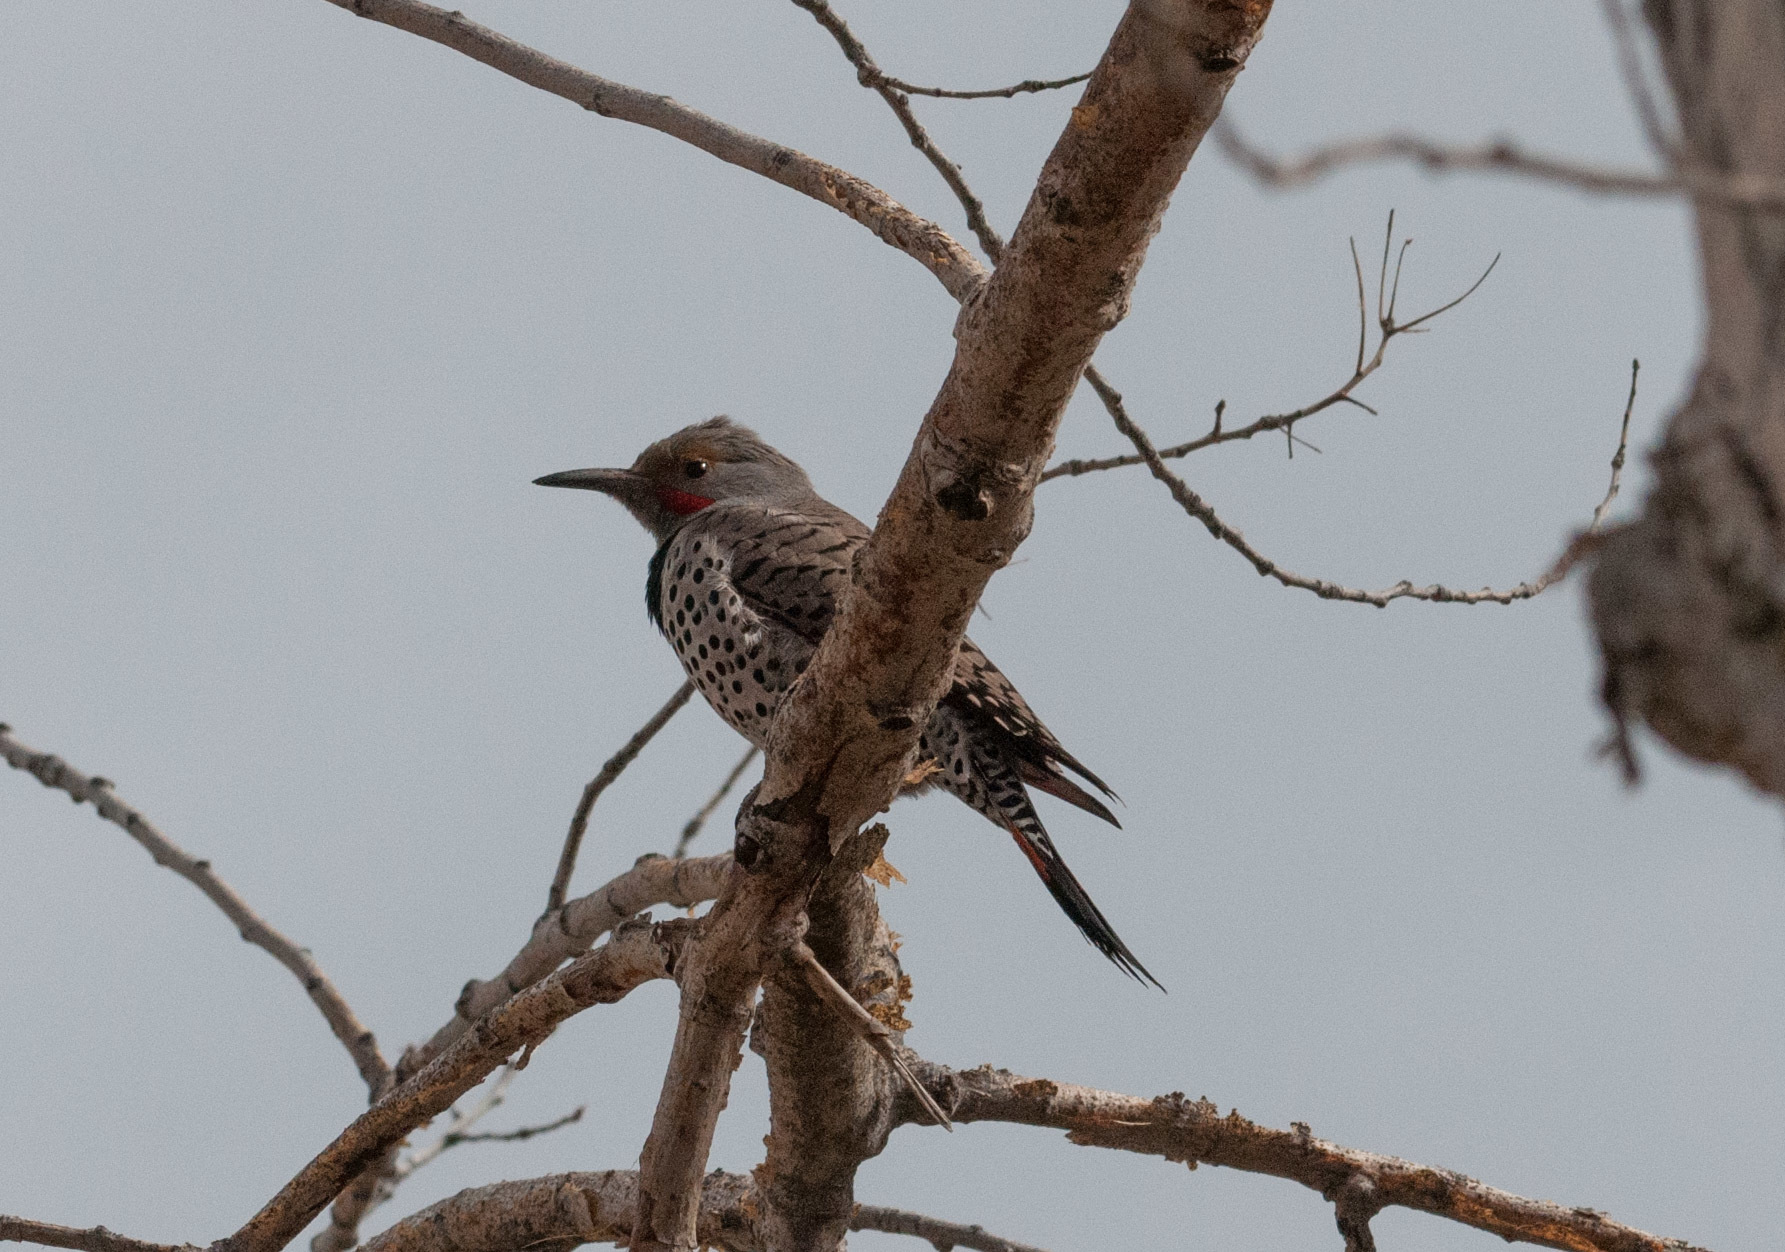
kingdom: Animalia
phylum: Chordata
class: Aves
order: Piciformes
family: Picidae
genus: Colaptes
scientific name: Colaptes auratus
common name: Northern flicker
